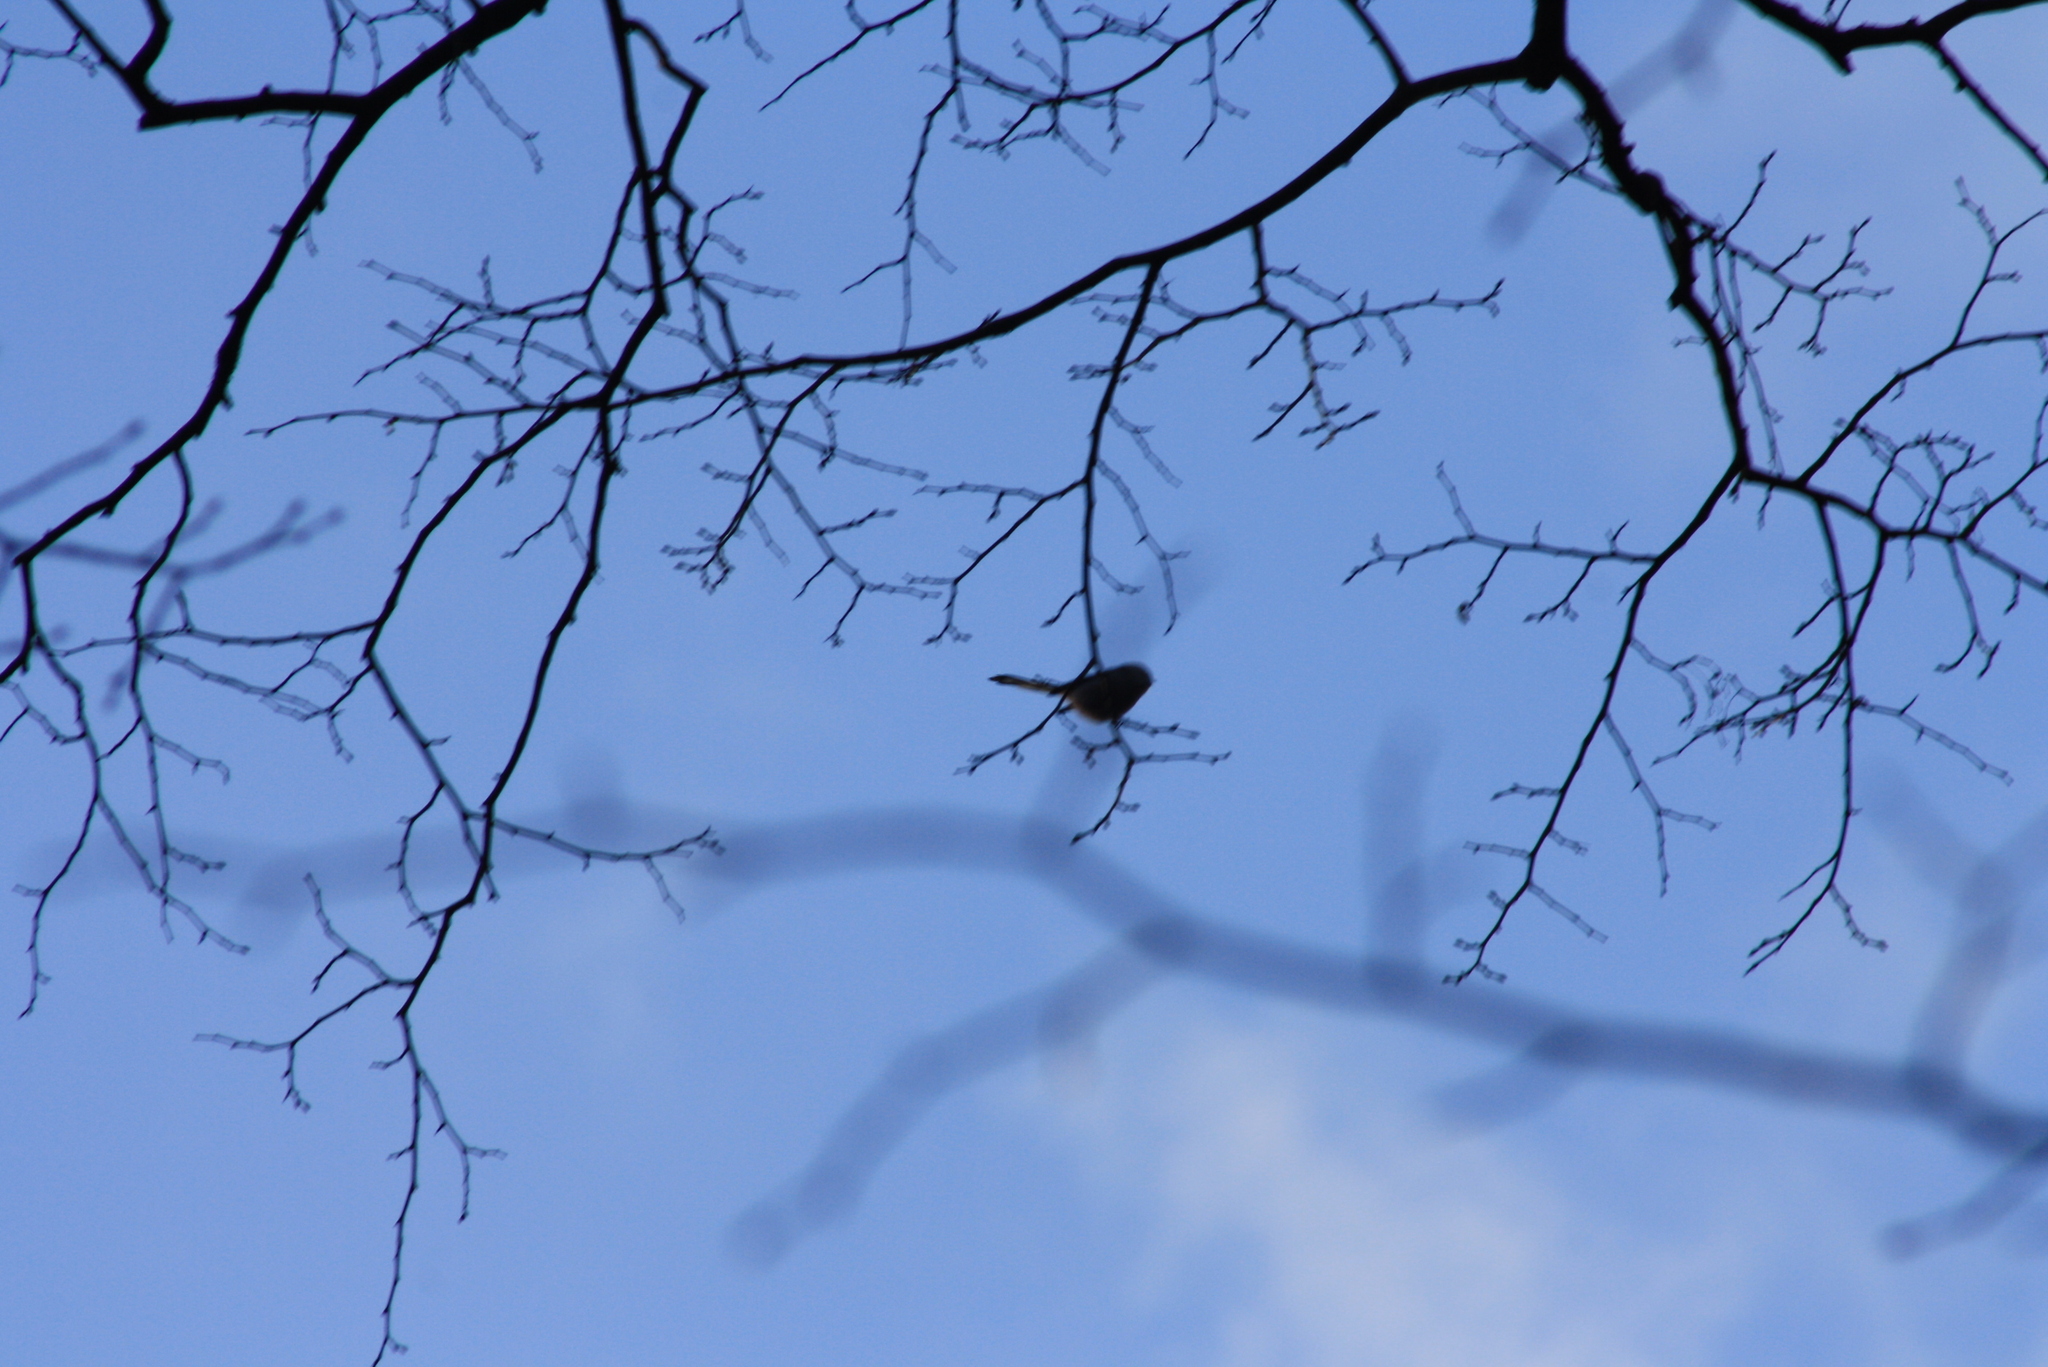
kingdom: Animalia
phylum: Chordata
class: Aves
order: Passeriformes
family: Aegithalidae
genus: Aegithalos
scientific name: Aegithalos caudatus
